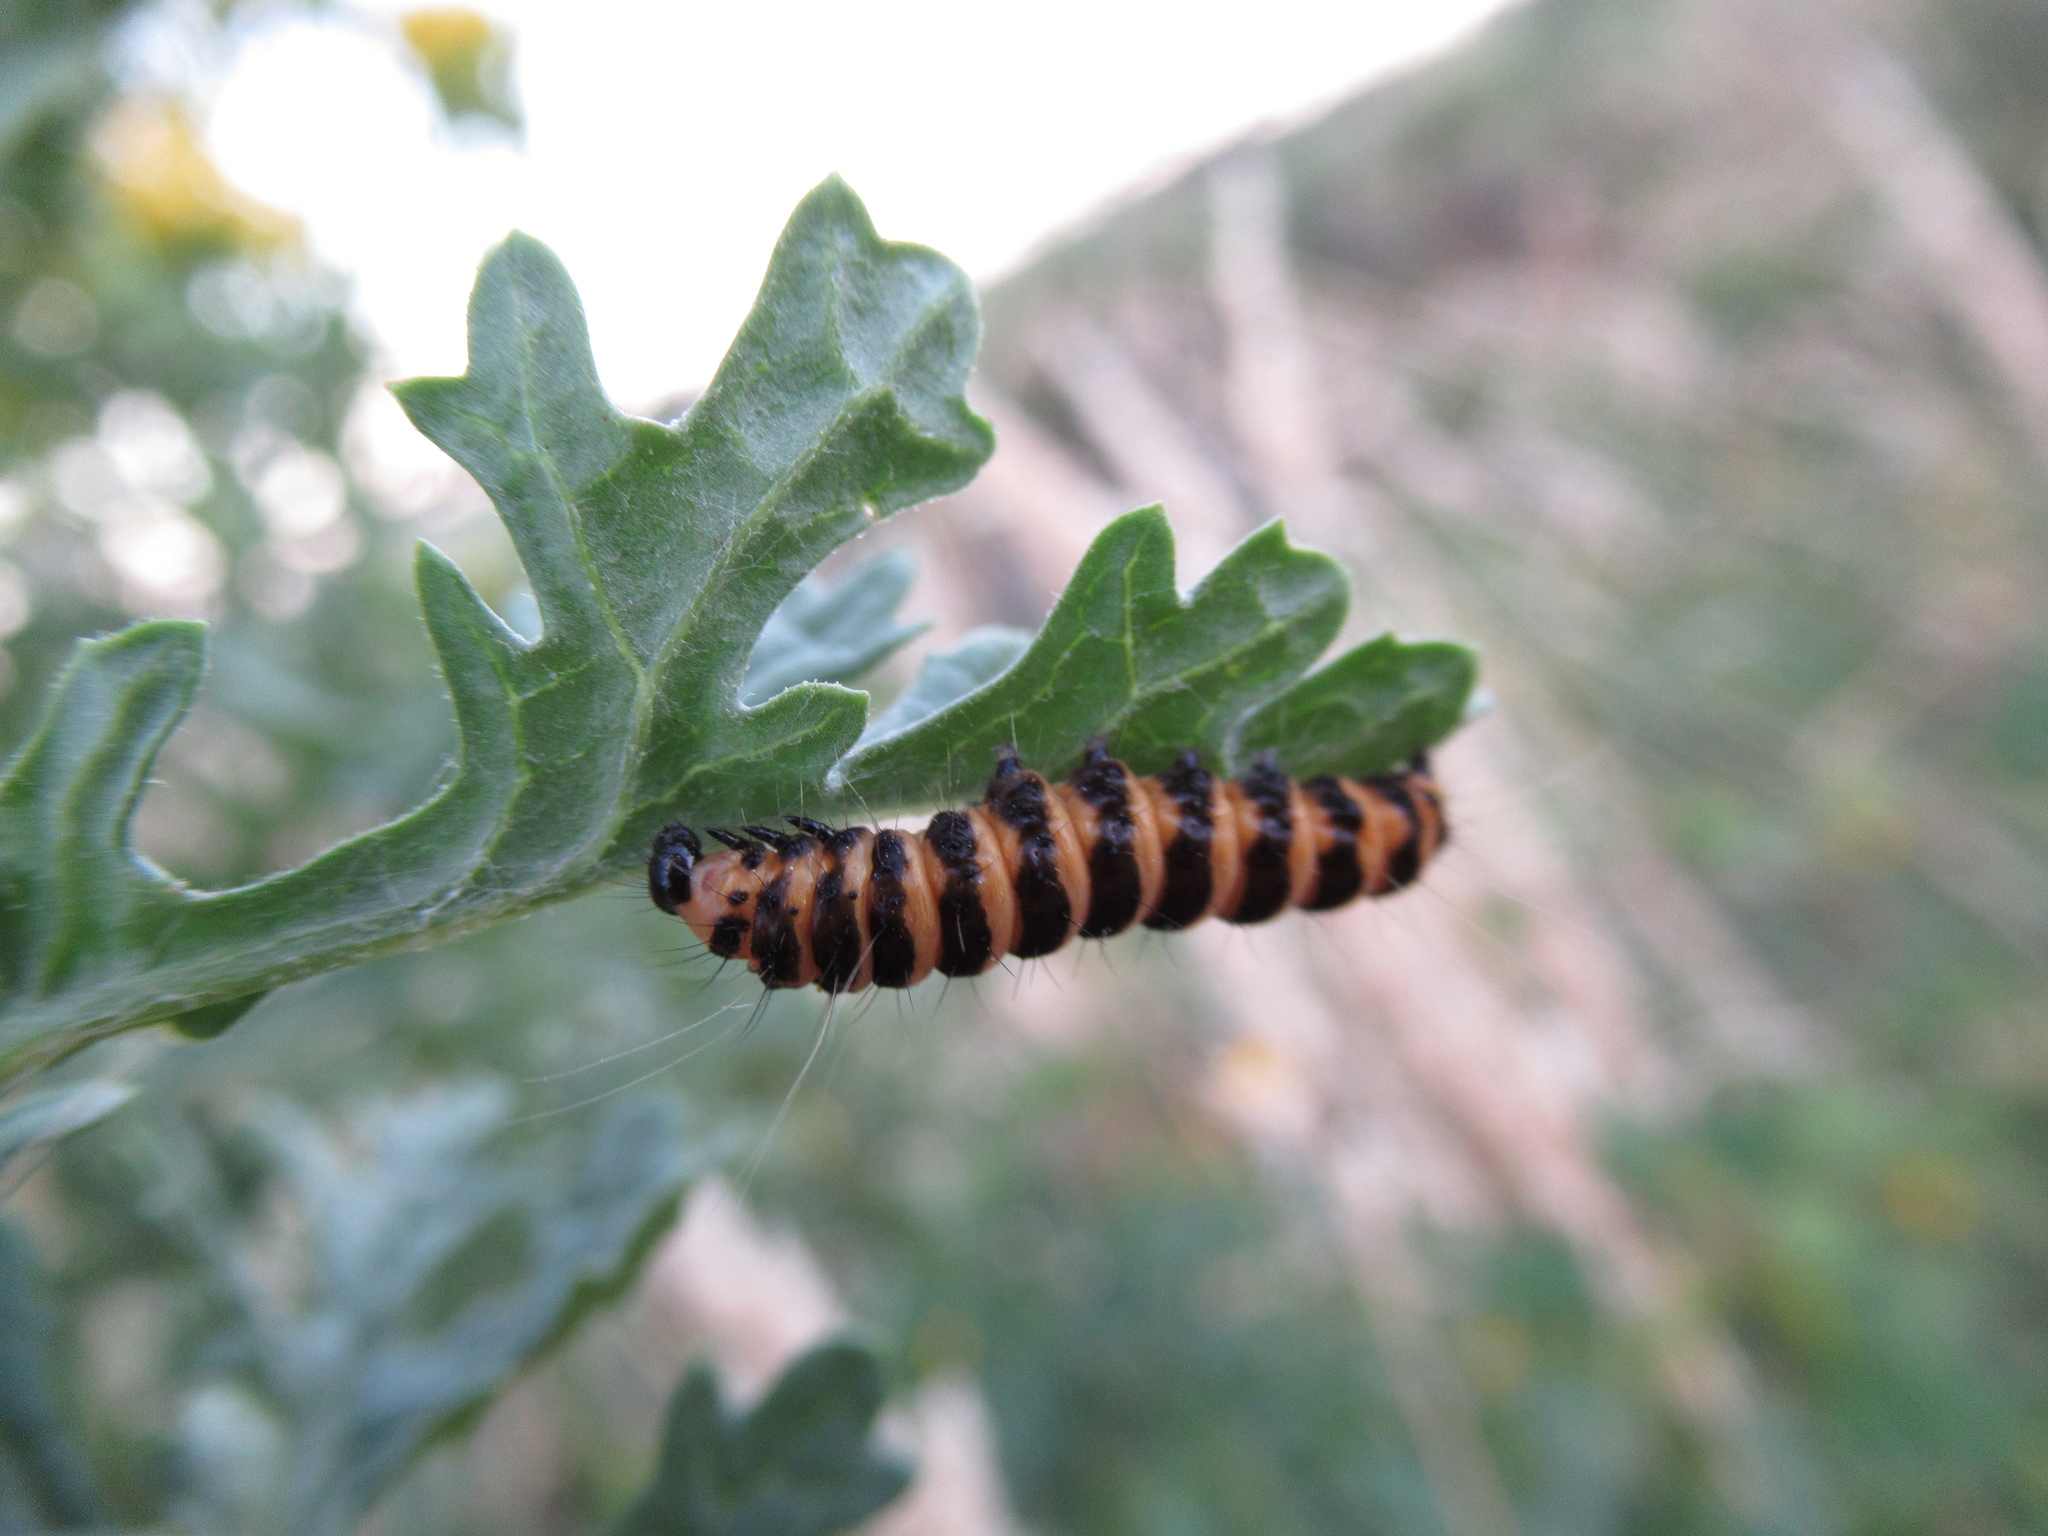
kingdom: Animalia
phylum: Arthropoda
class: Insecta
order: Lepidoptera
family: Erebidae
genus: Tyria
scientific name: Tyria jacobaeae
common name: Cinnabar
